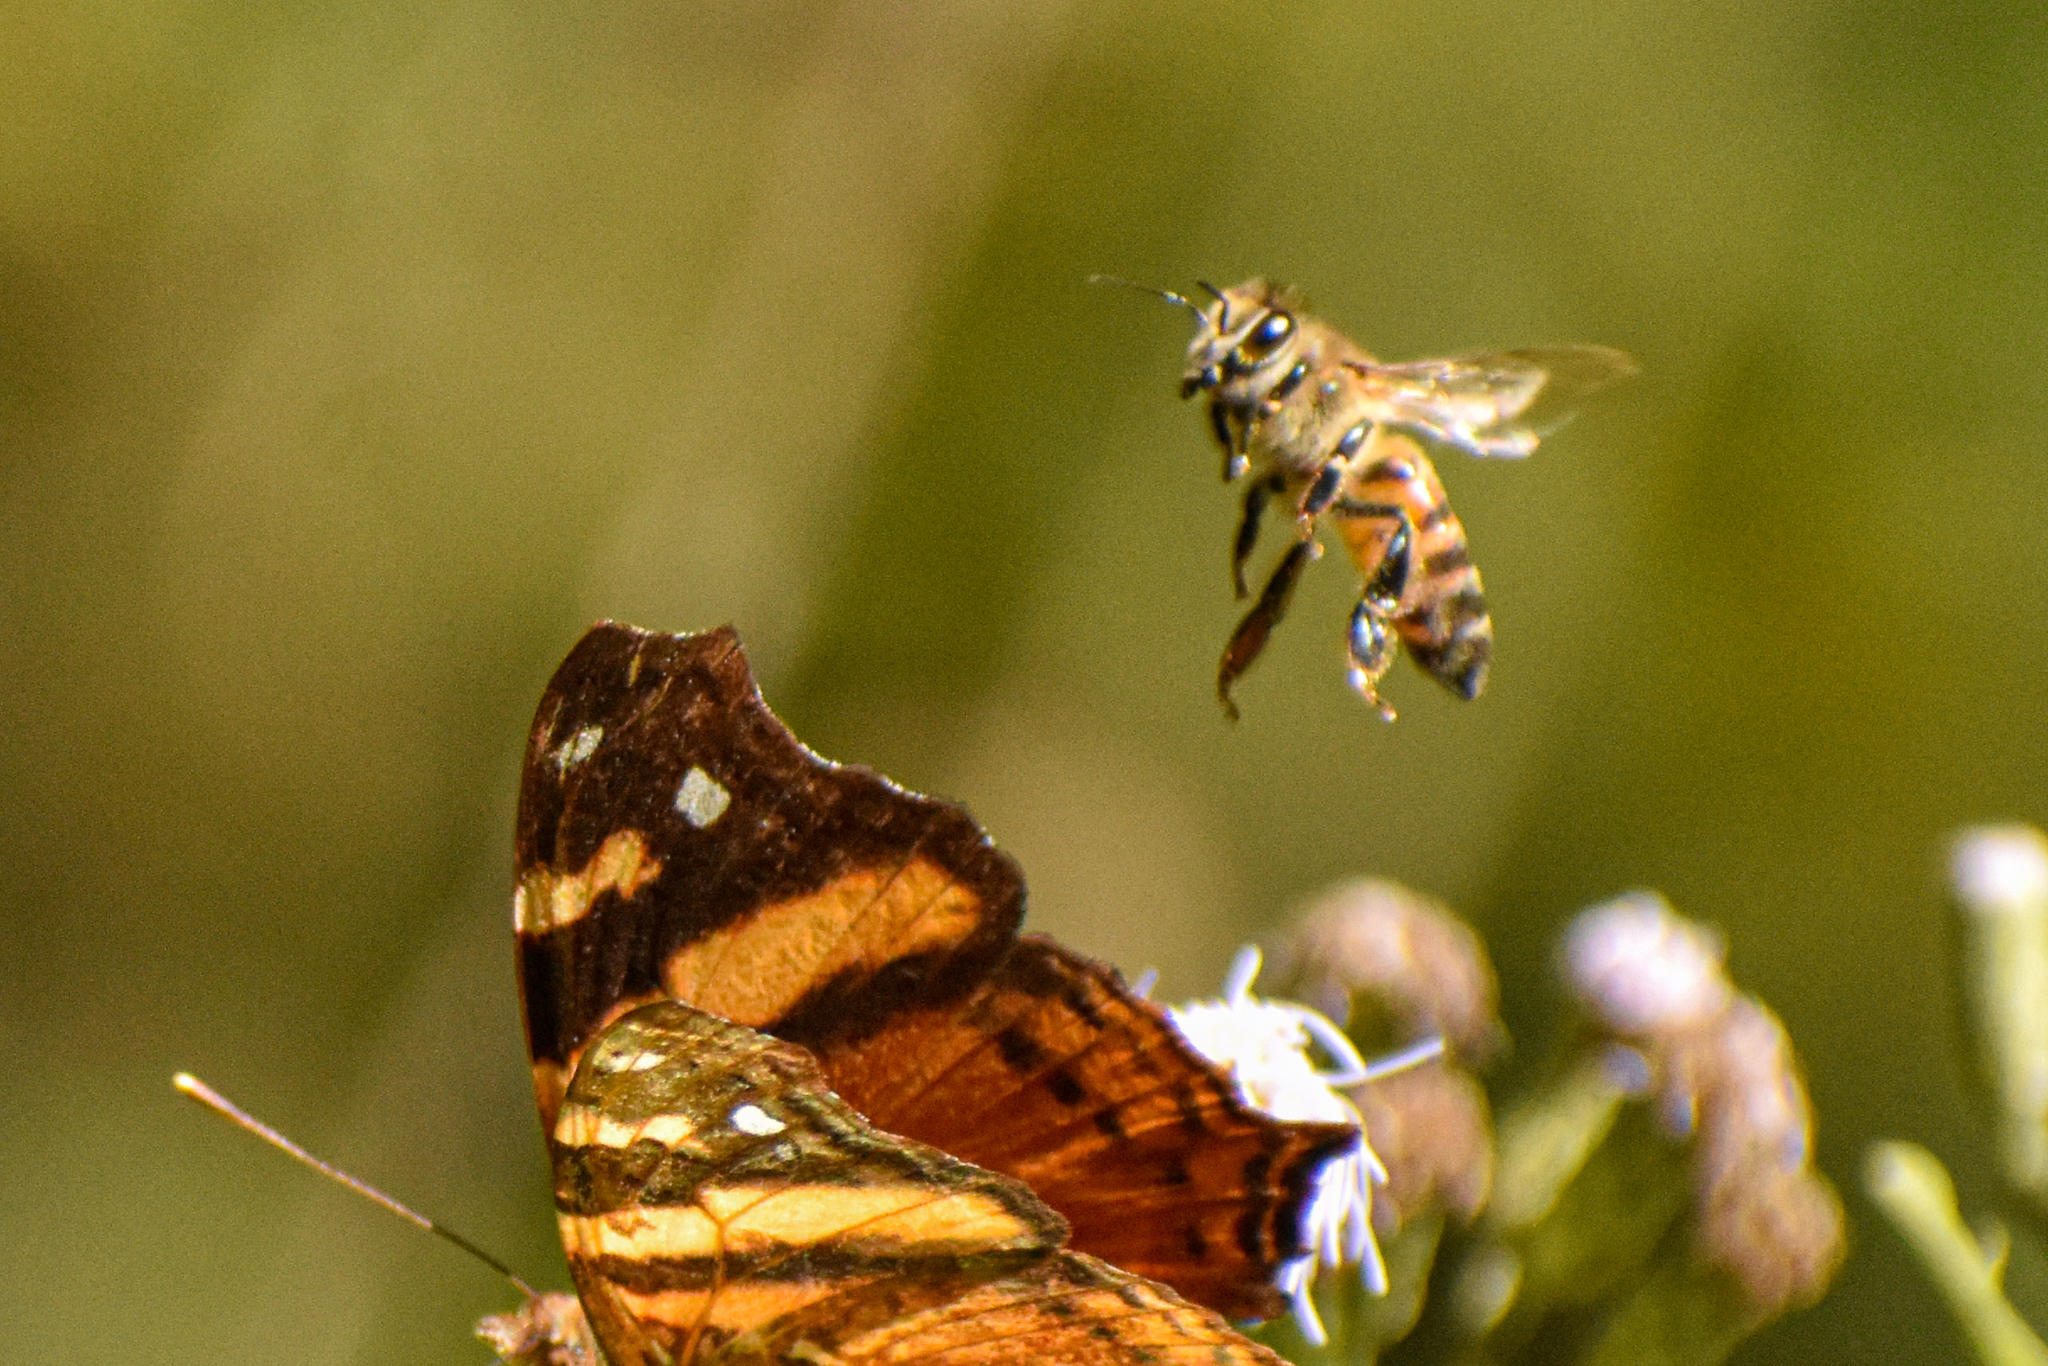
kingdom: Animalia
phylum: Arthropoda
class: Insecta
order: Hymenoptera
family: Apidae
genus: Apis
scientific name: Apis mellifera
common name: Honey bee
